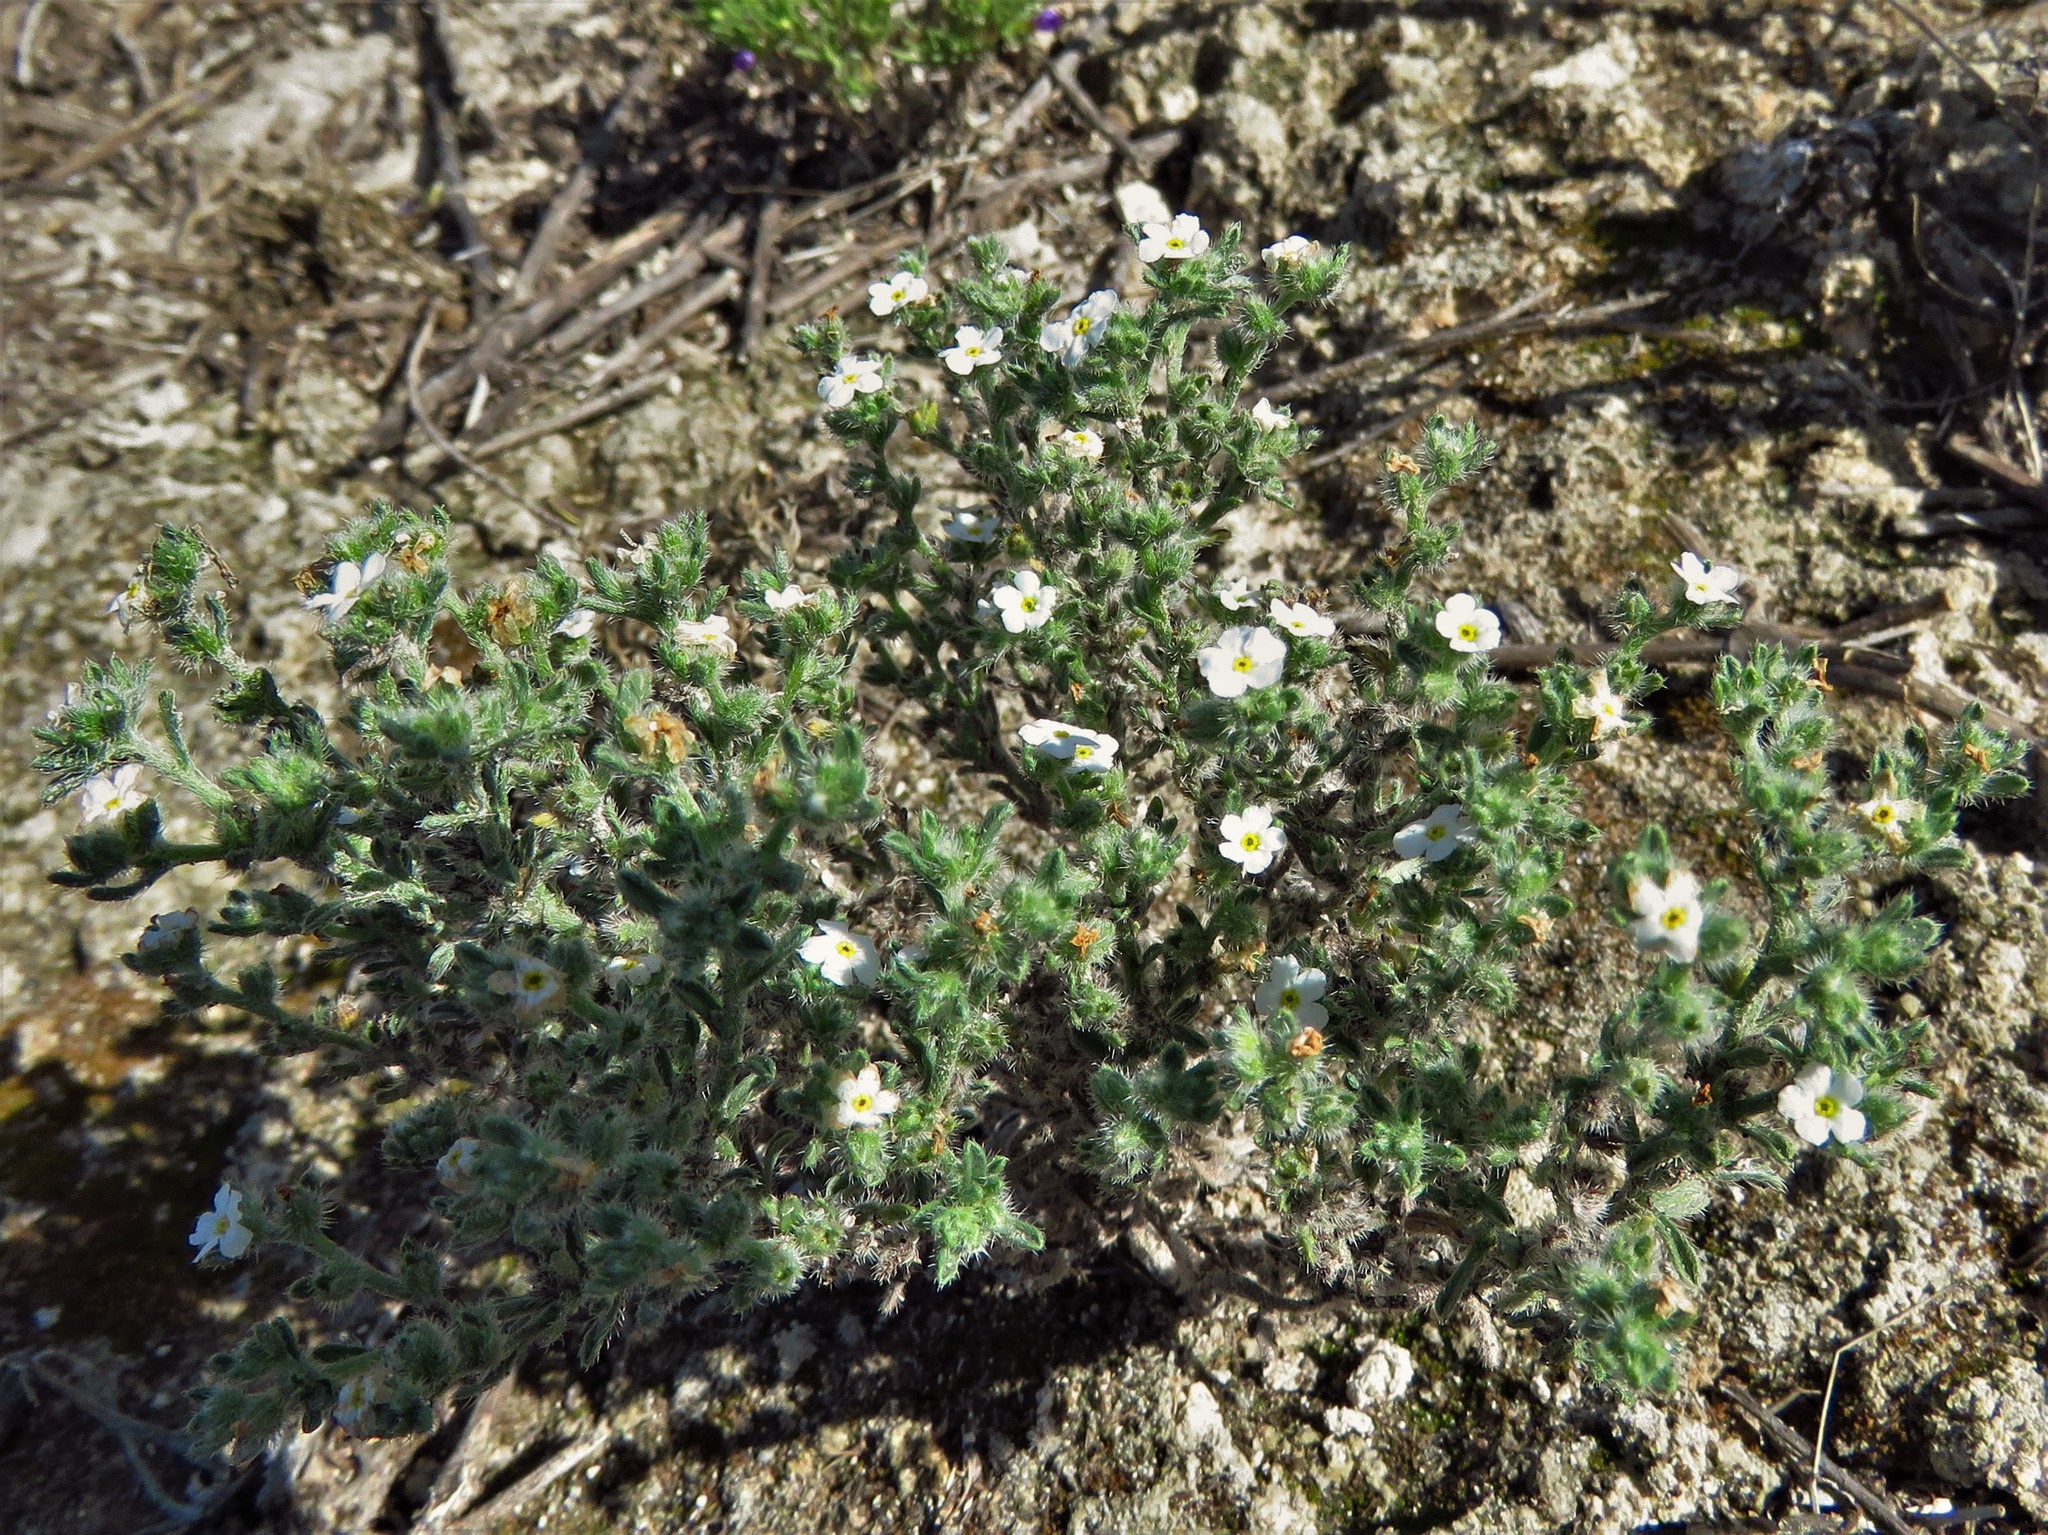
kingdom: Plantae
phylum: Tracheophyta
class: Magnoliopsida
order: Boraginales
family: Boraginaceae
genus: Johnstonella
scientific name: Johnstonella gypsites
